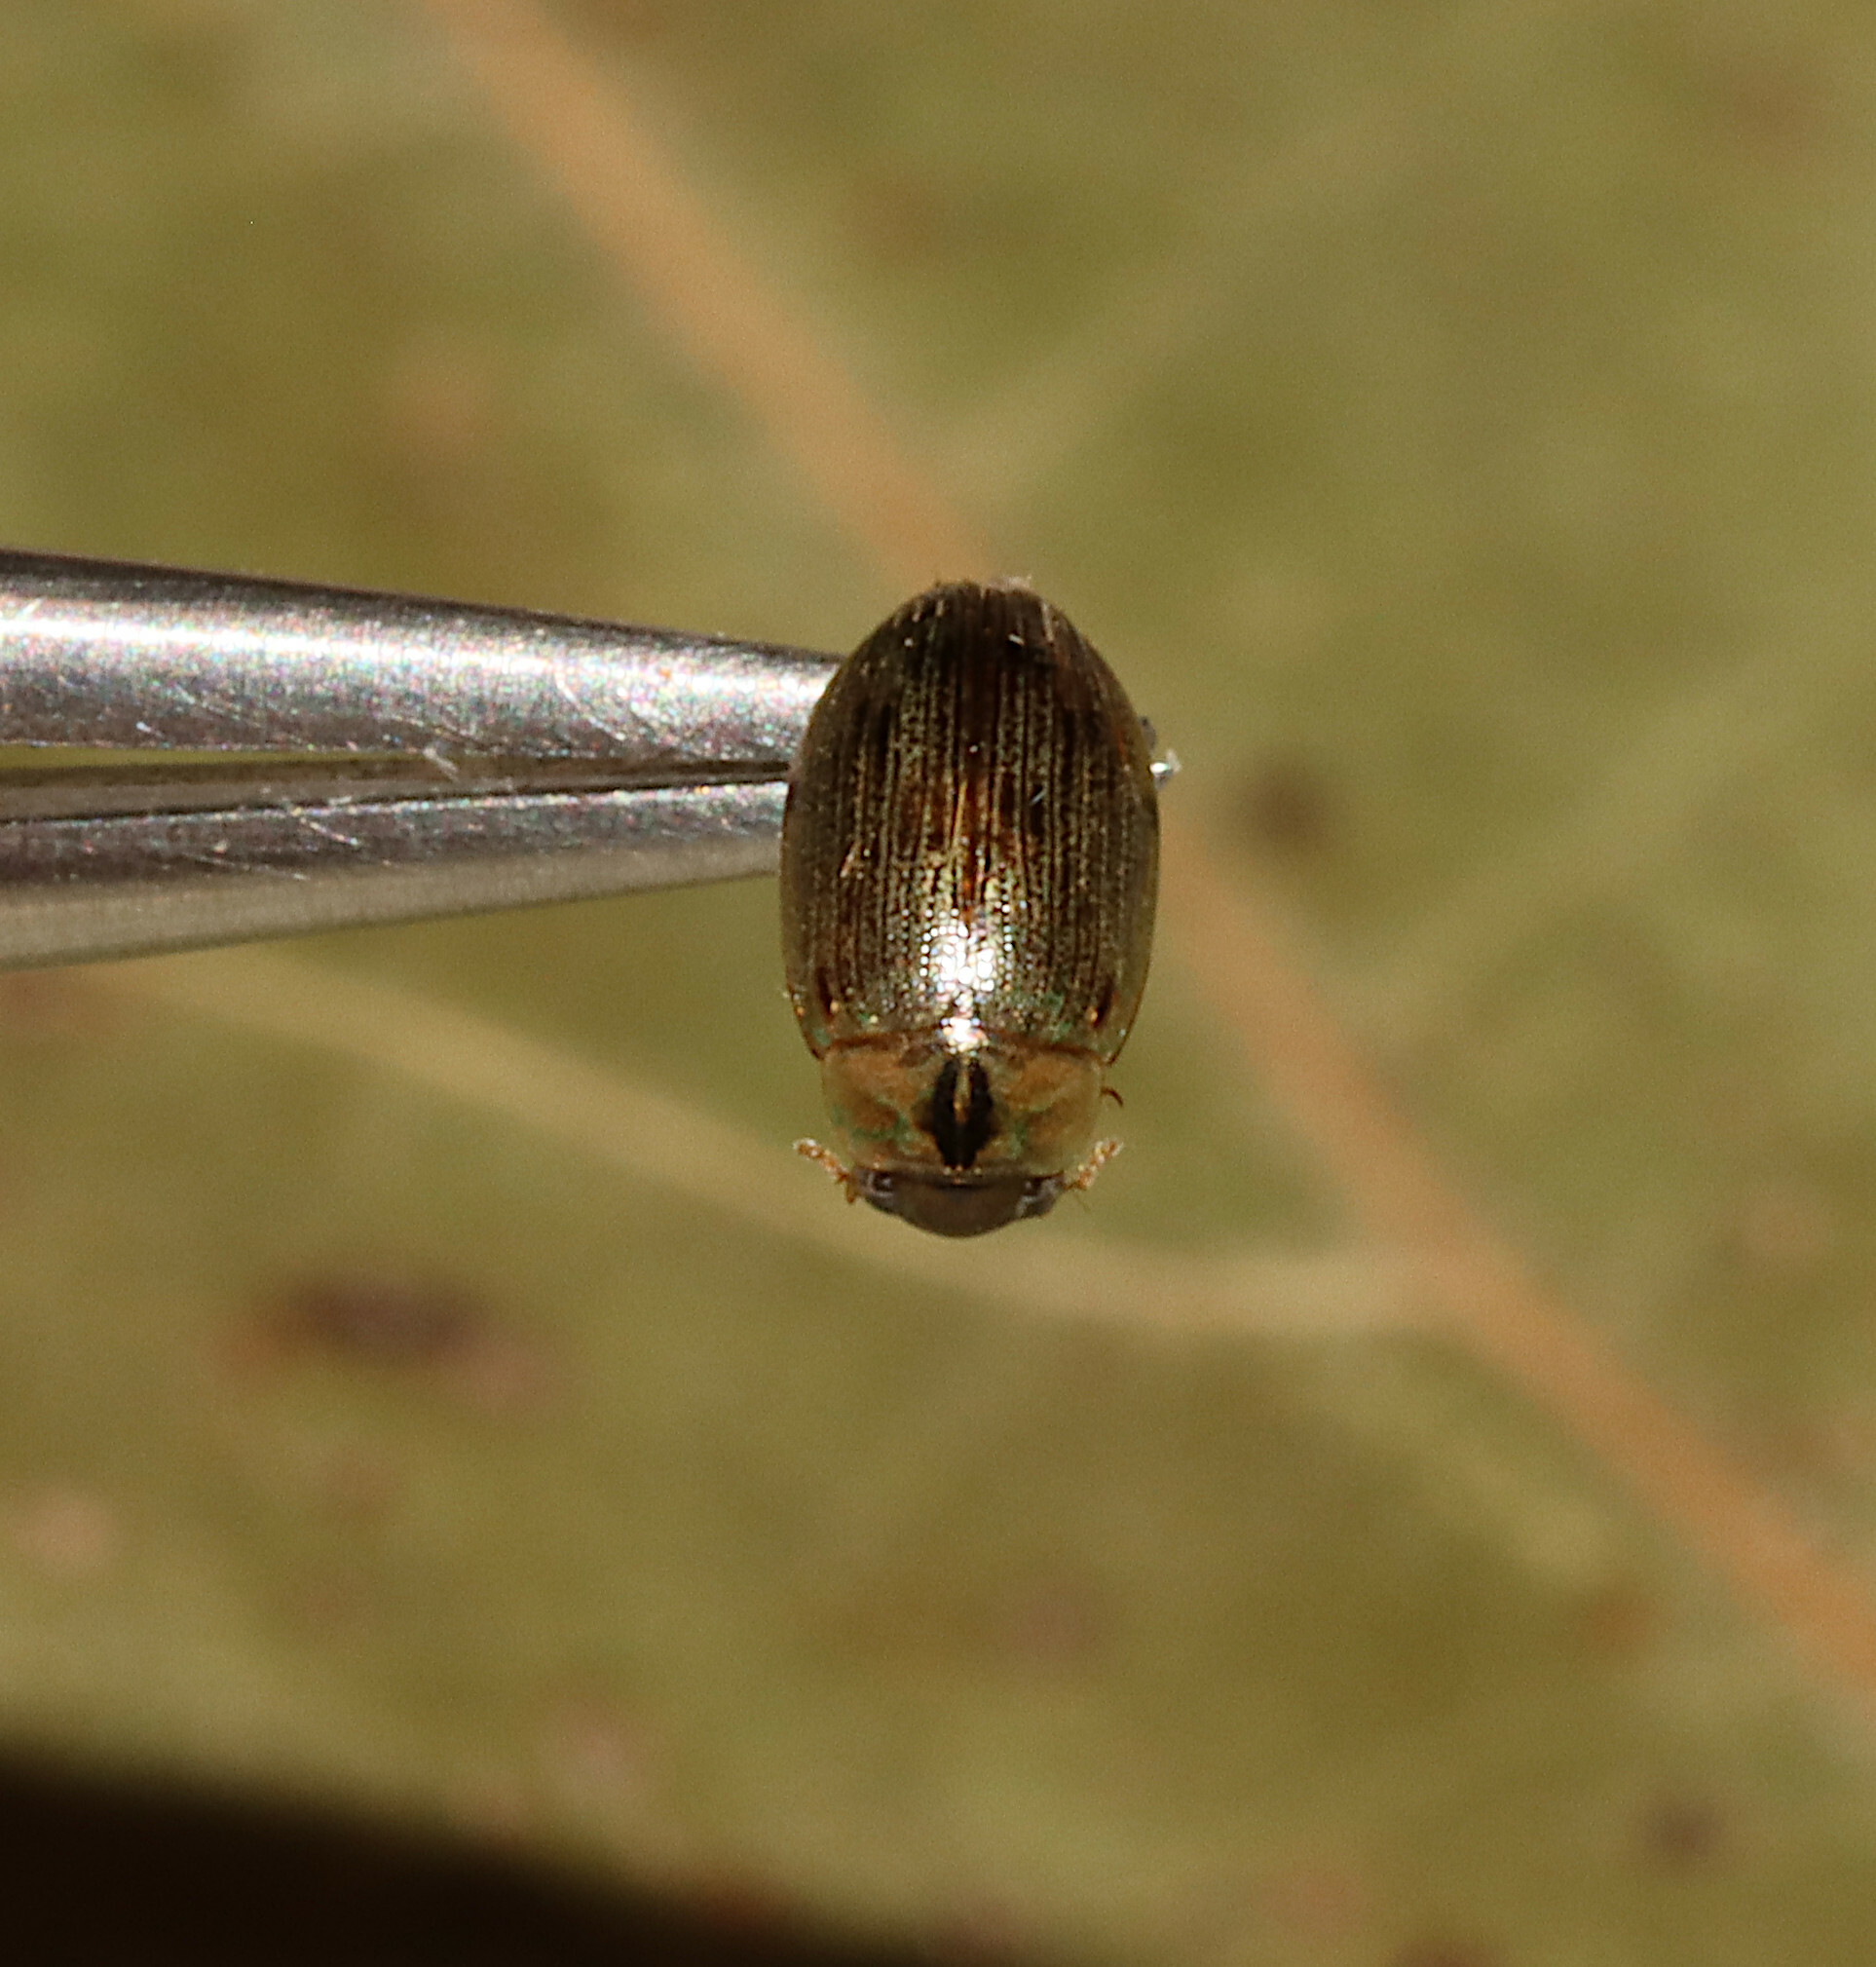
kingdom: Animalia
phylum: Arthropoda
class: Insecta
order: Coleoptera
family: Hydrophilidae
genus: Berosus
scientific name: Berosus
